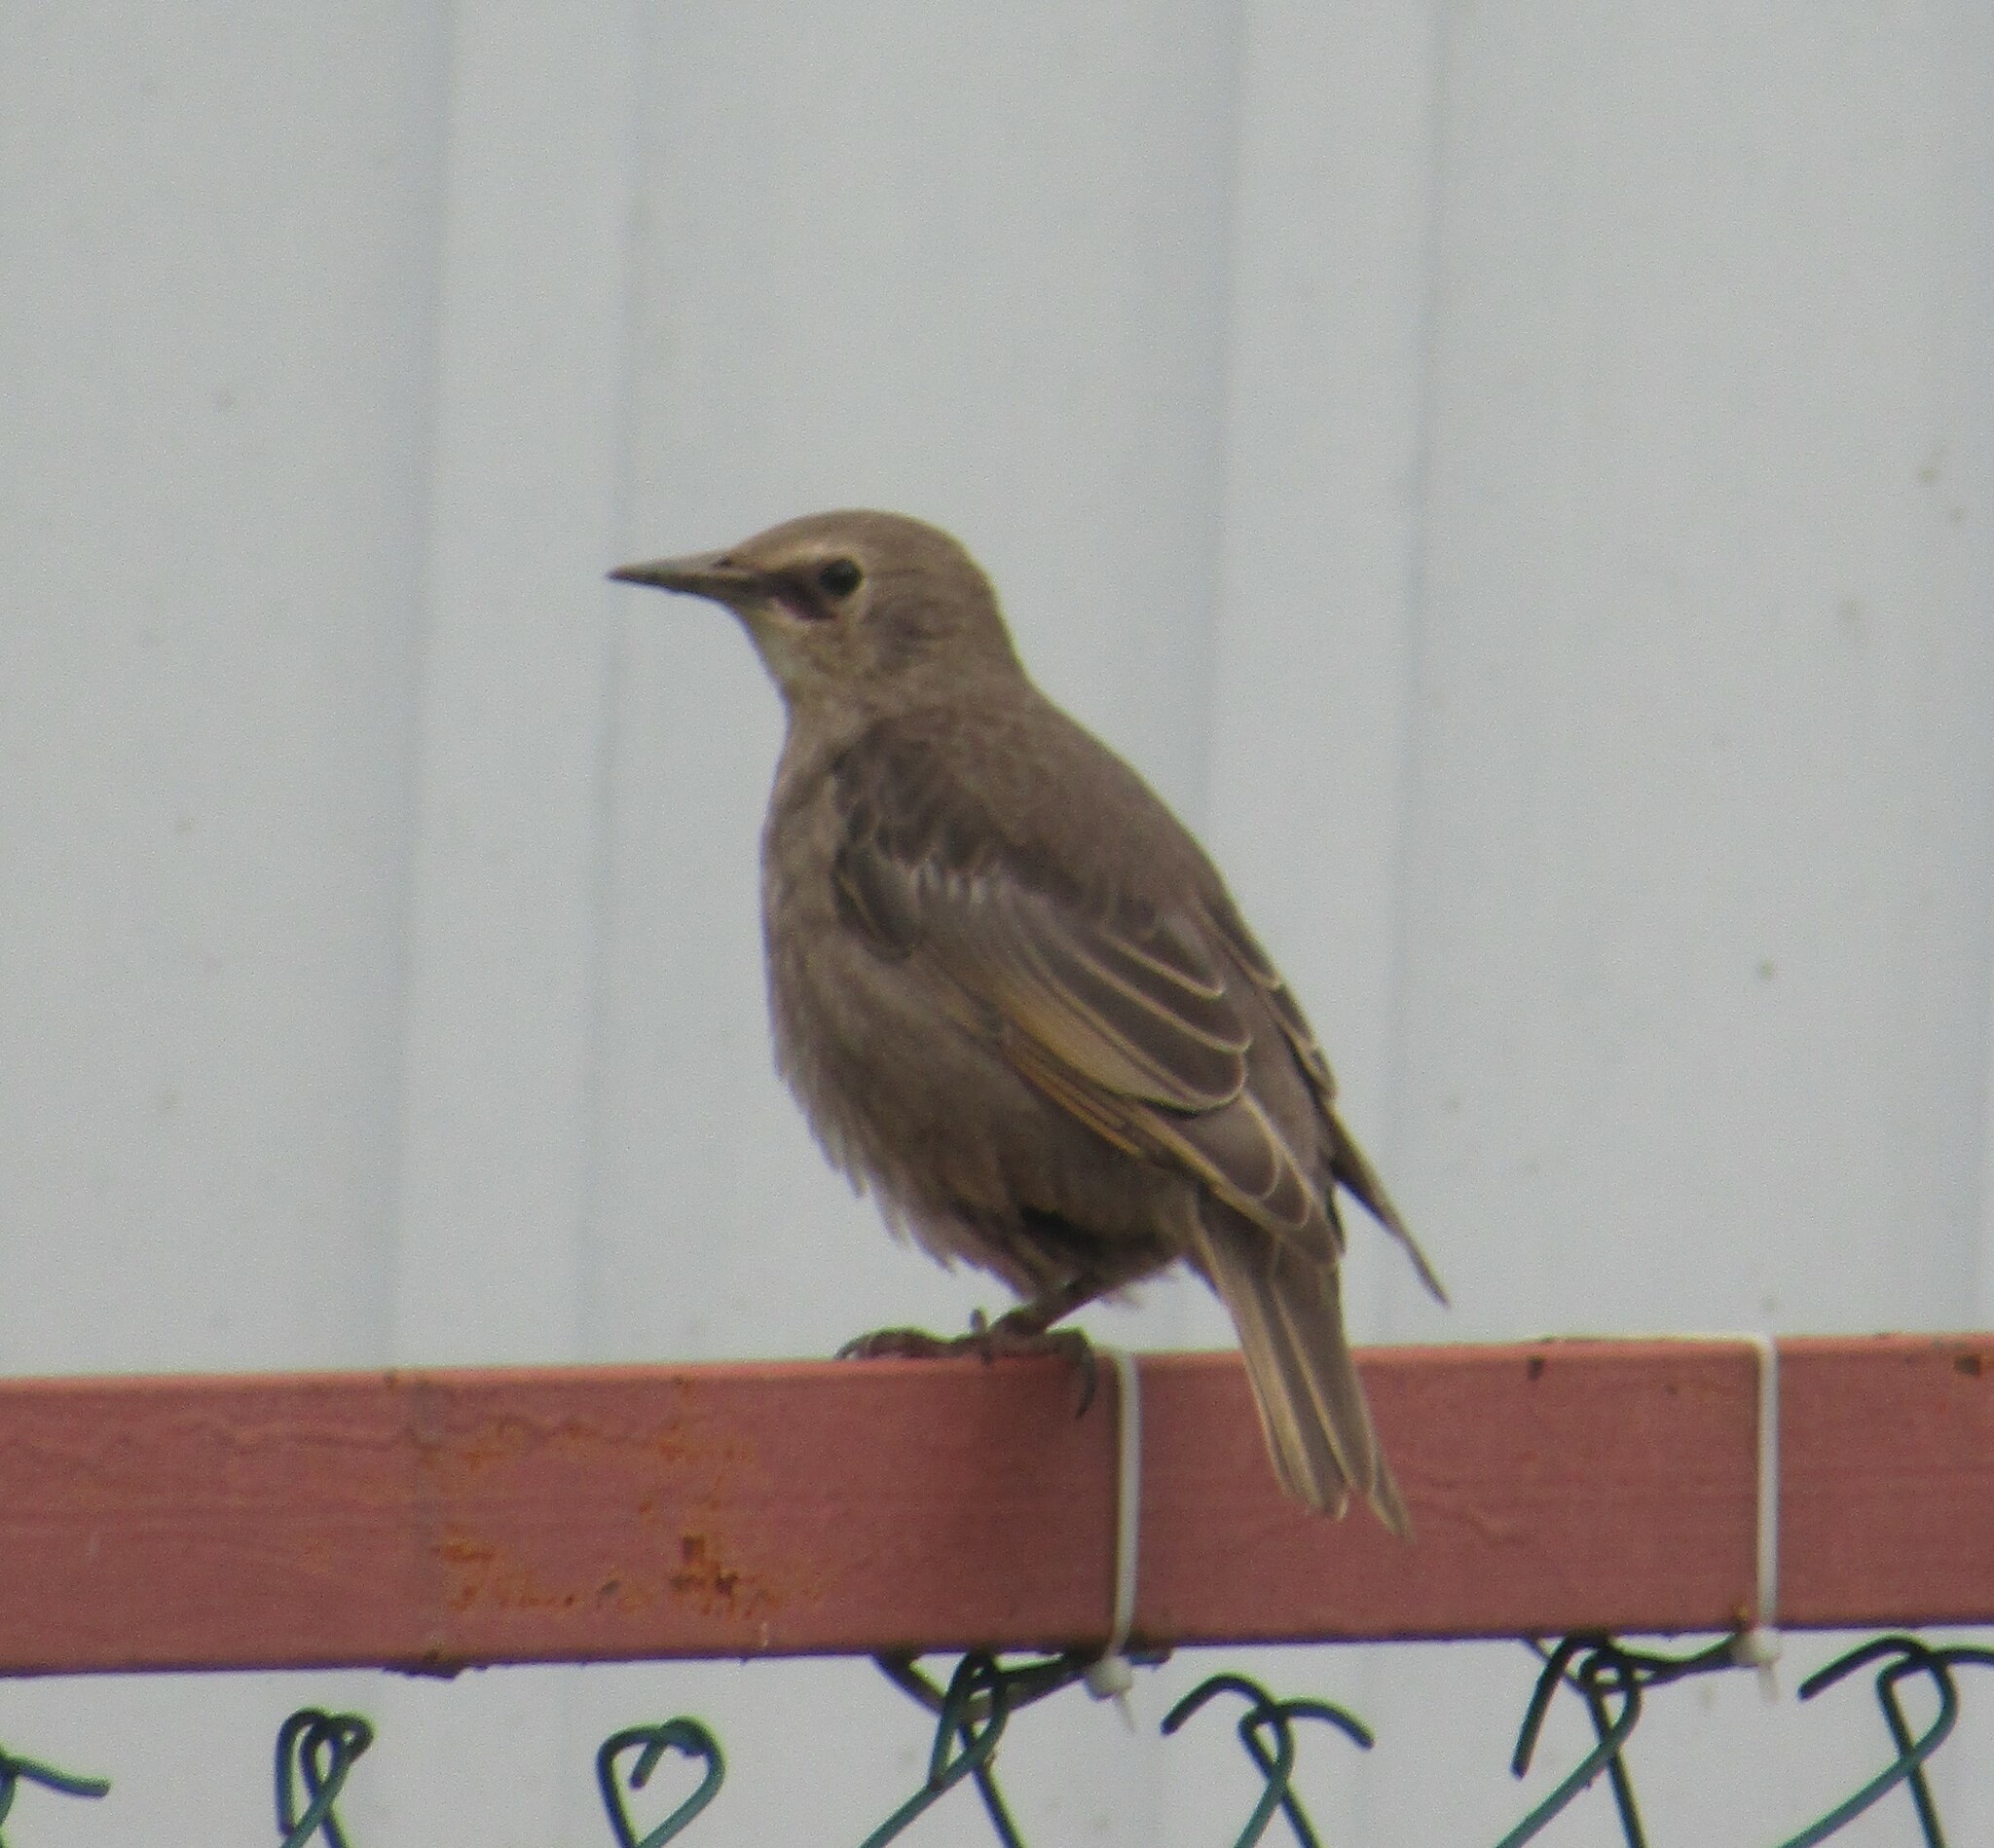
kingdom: Animalia
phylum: Chordata
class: Aves
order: Passeriformes
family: Sturnidae
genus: Sturnus
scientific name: Sturnus vulgaris
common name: Common starling
